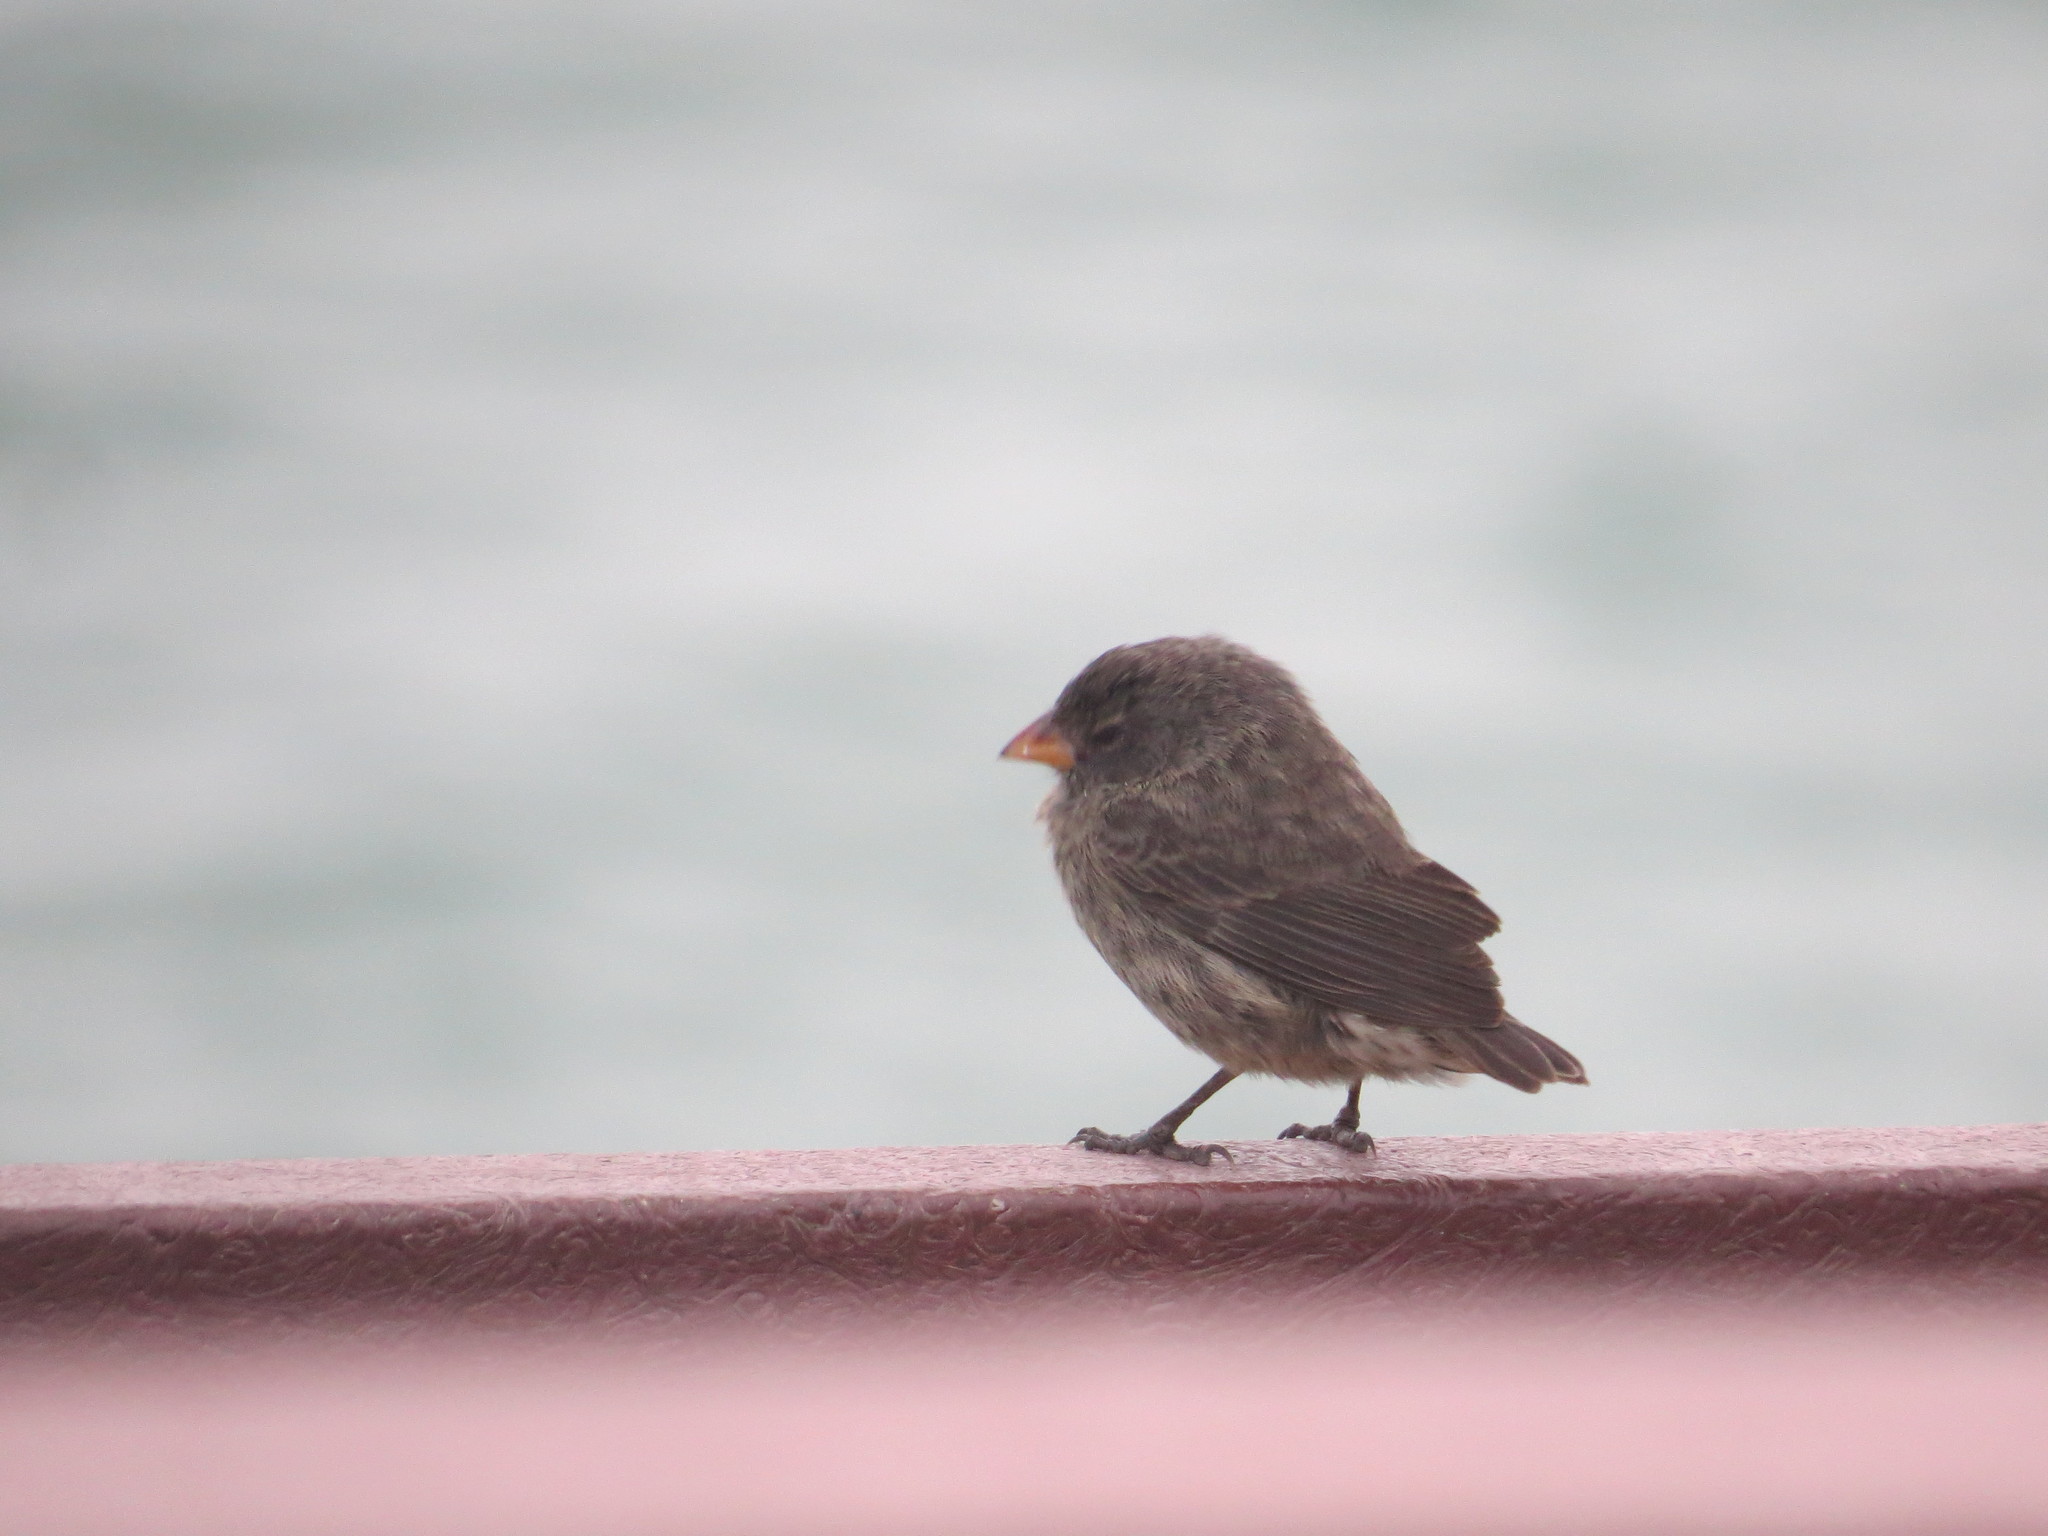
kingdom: Animalia
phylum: Chordata
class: Aves
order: Passeriformes
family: Thraupidae
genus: Geospiza
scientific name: Geospiza fuliginosa
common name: Small ground finch
